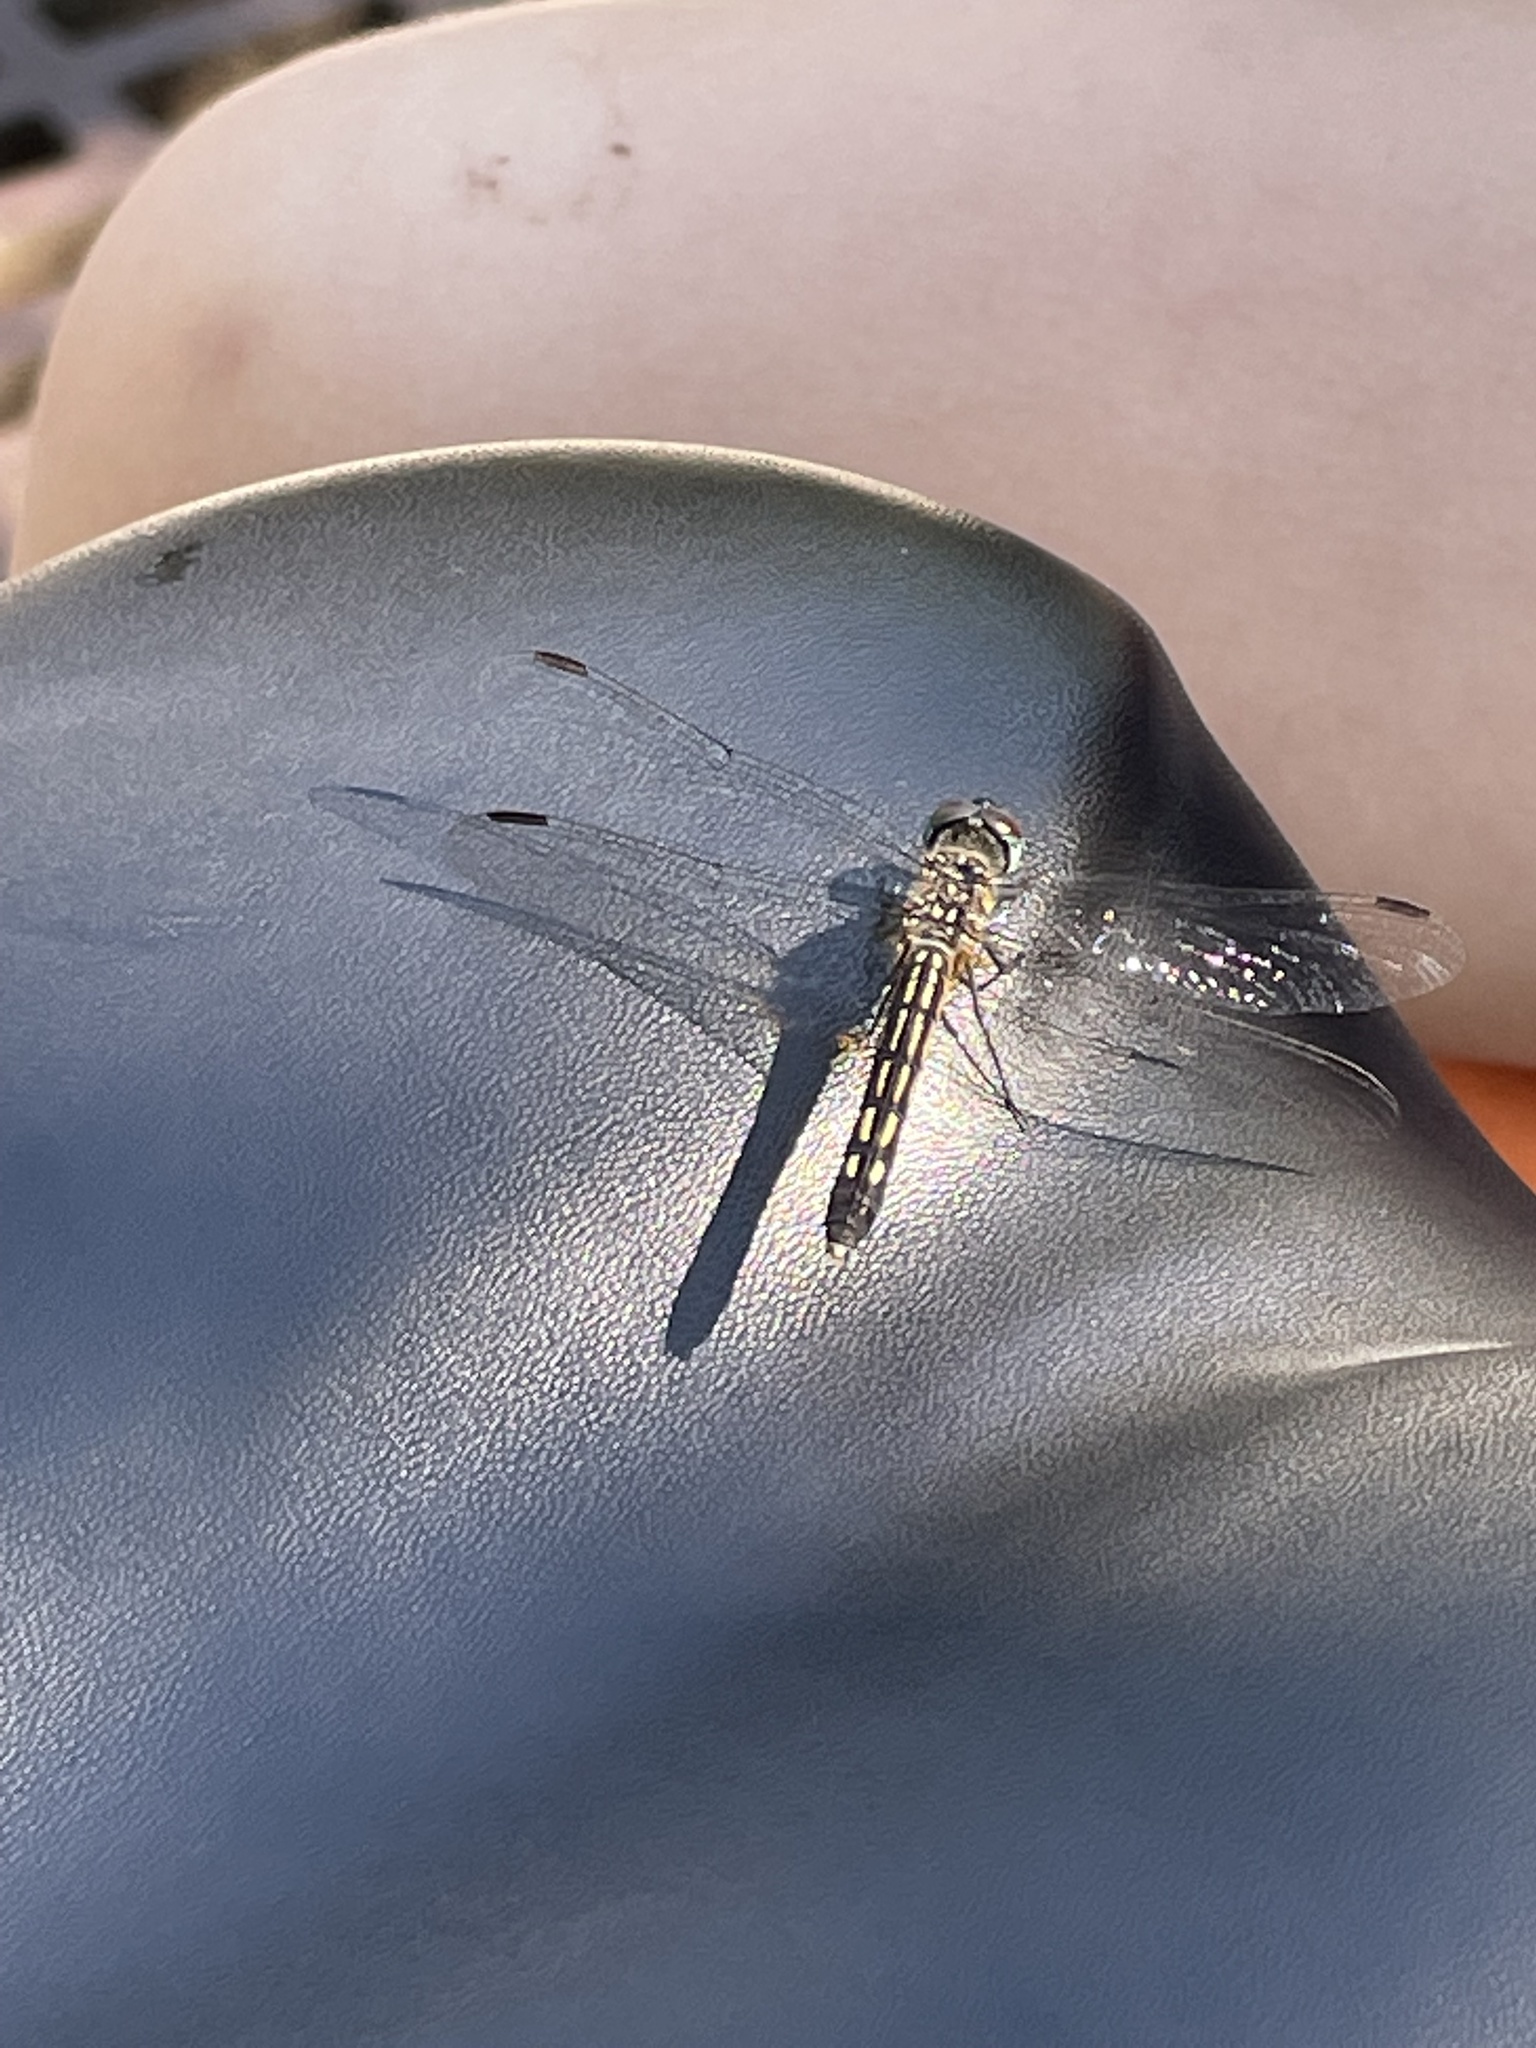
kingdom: Animalia
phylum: Arthropoda
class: Insecta
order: Odonata
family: Libellulidae
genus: Pachydiplax
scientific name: Pachydiplax longipennis
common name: Blue dasher
